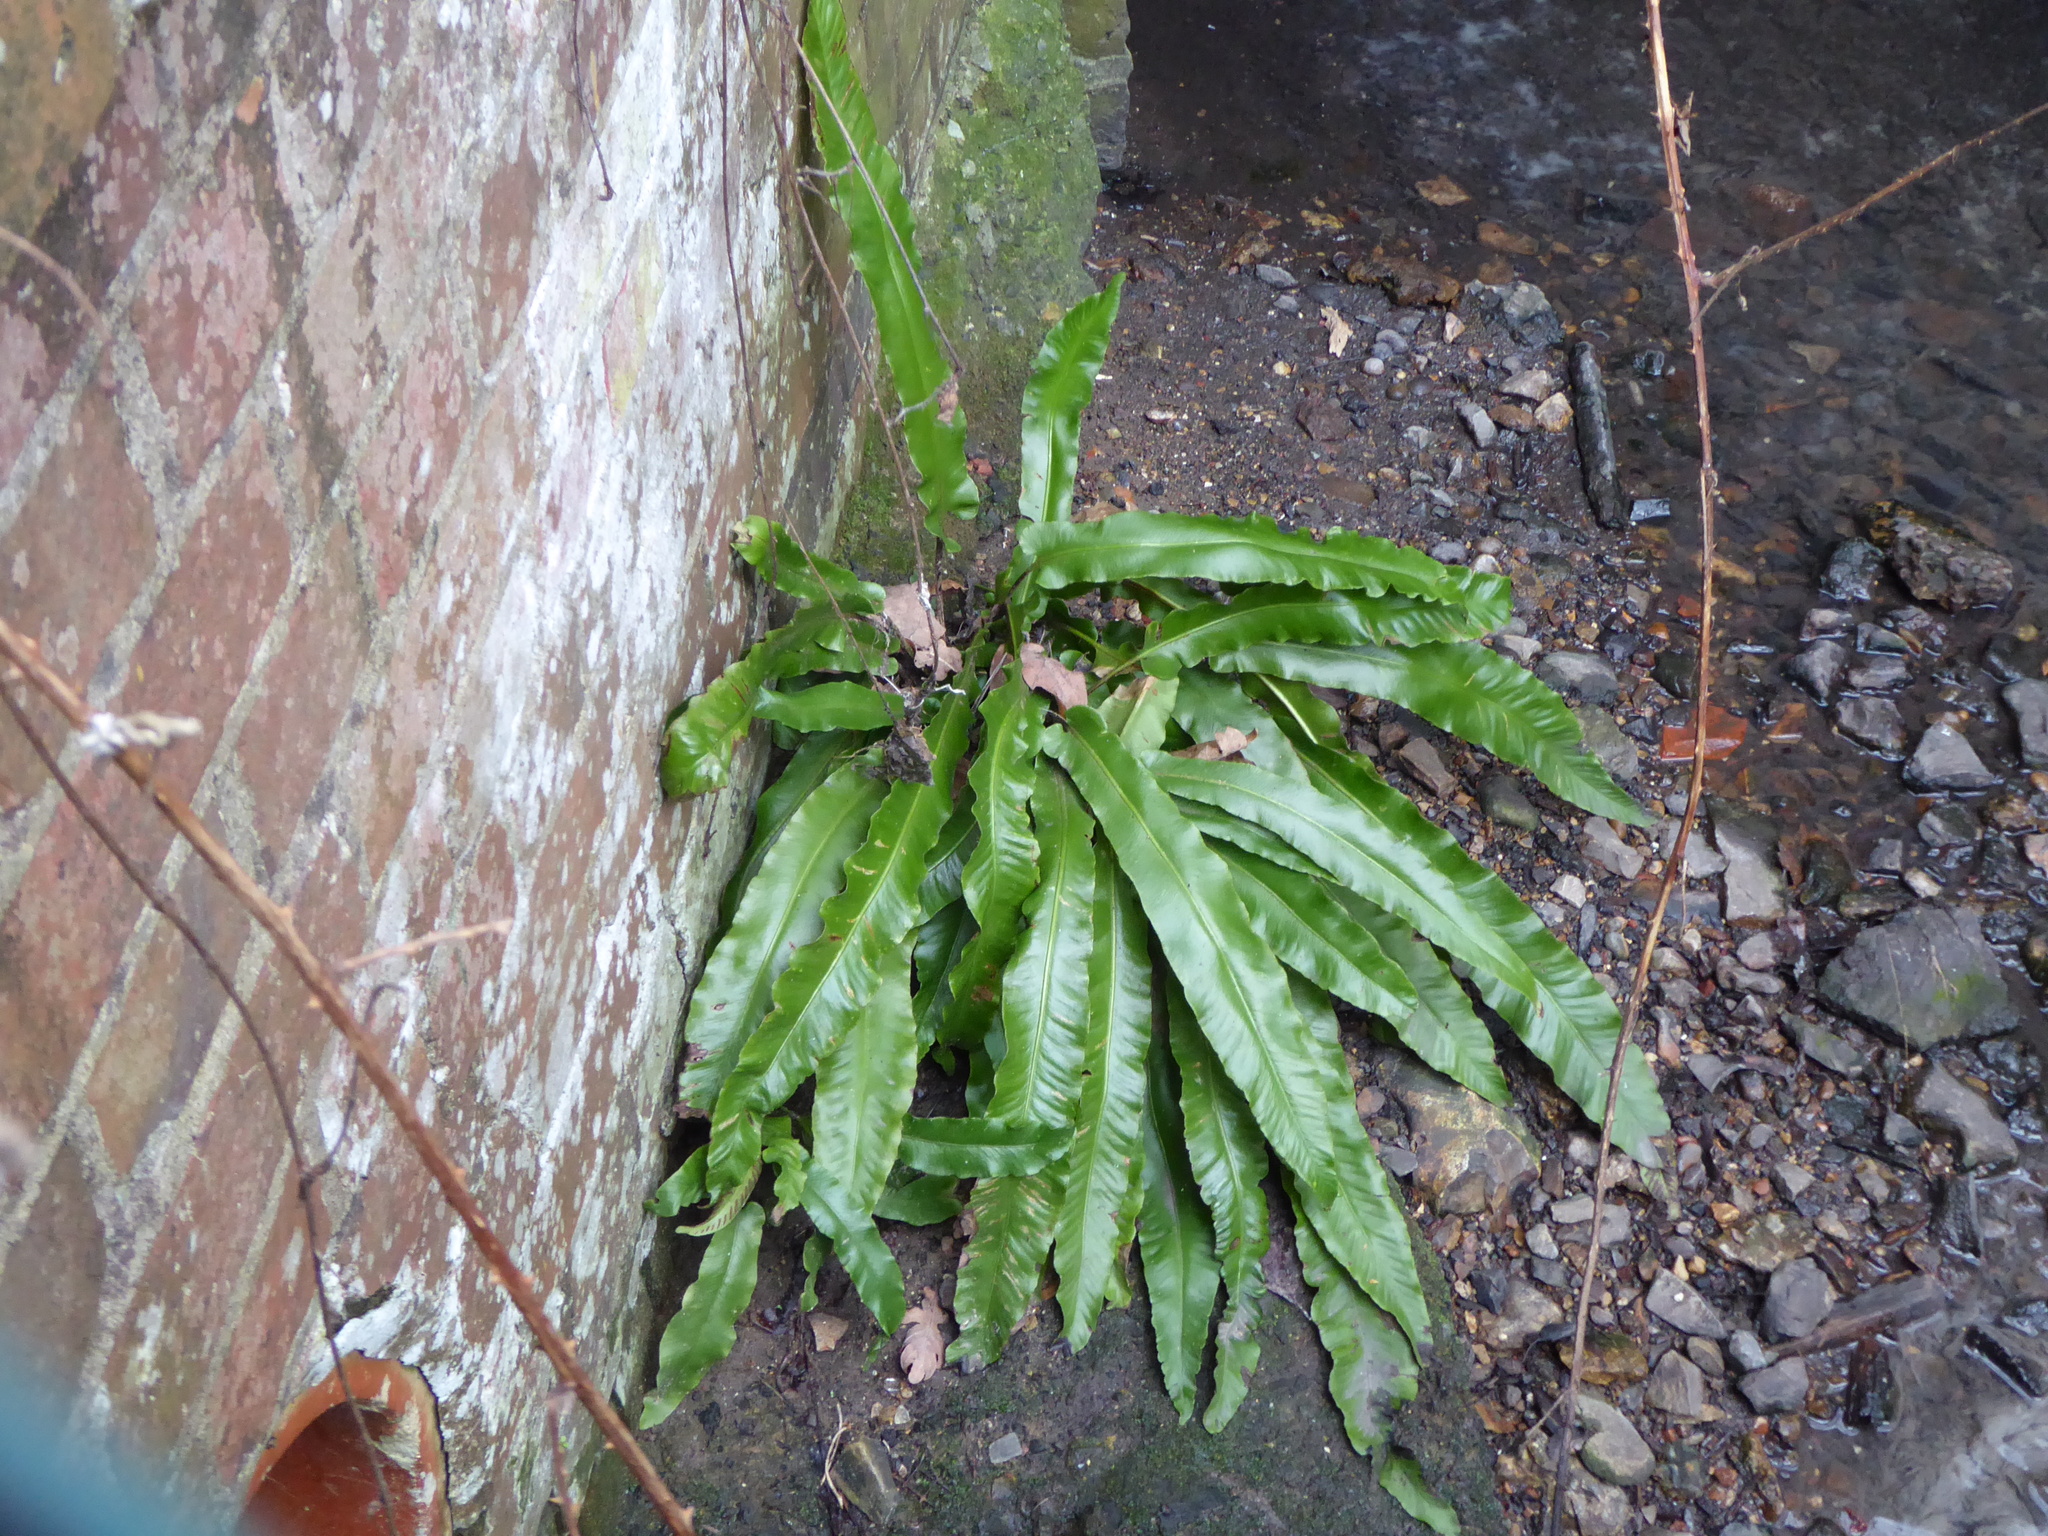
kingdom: Plantae
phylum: Tracheophyta
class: Polypodiopsida
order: Polypodiales
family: Aspleniaceae
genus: Asplenium
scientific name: Asplenium scolopendrium
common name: Hart's-tongue fern
